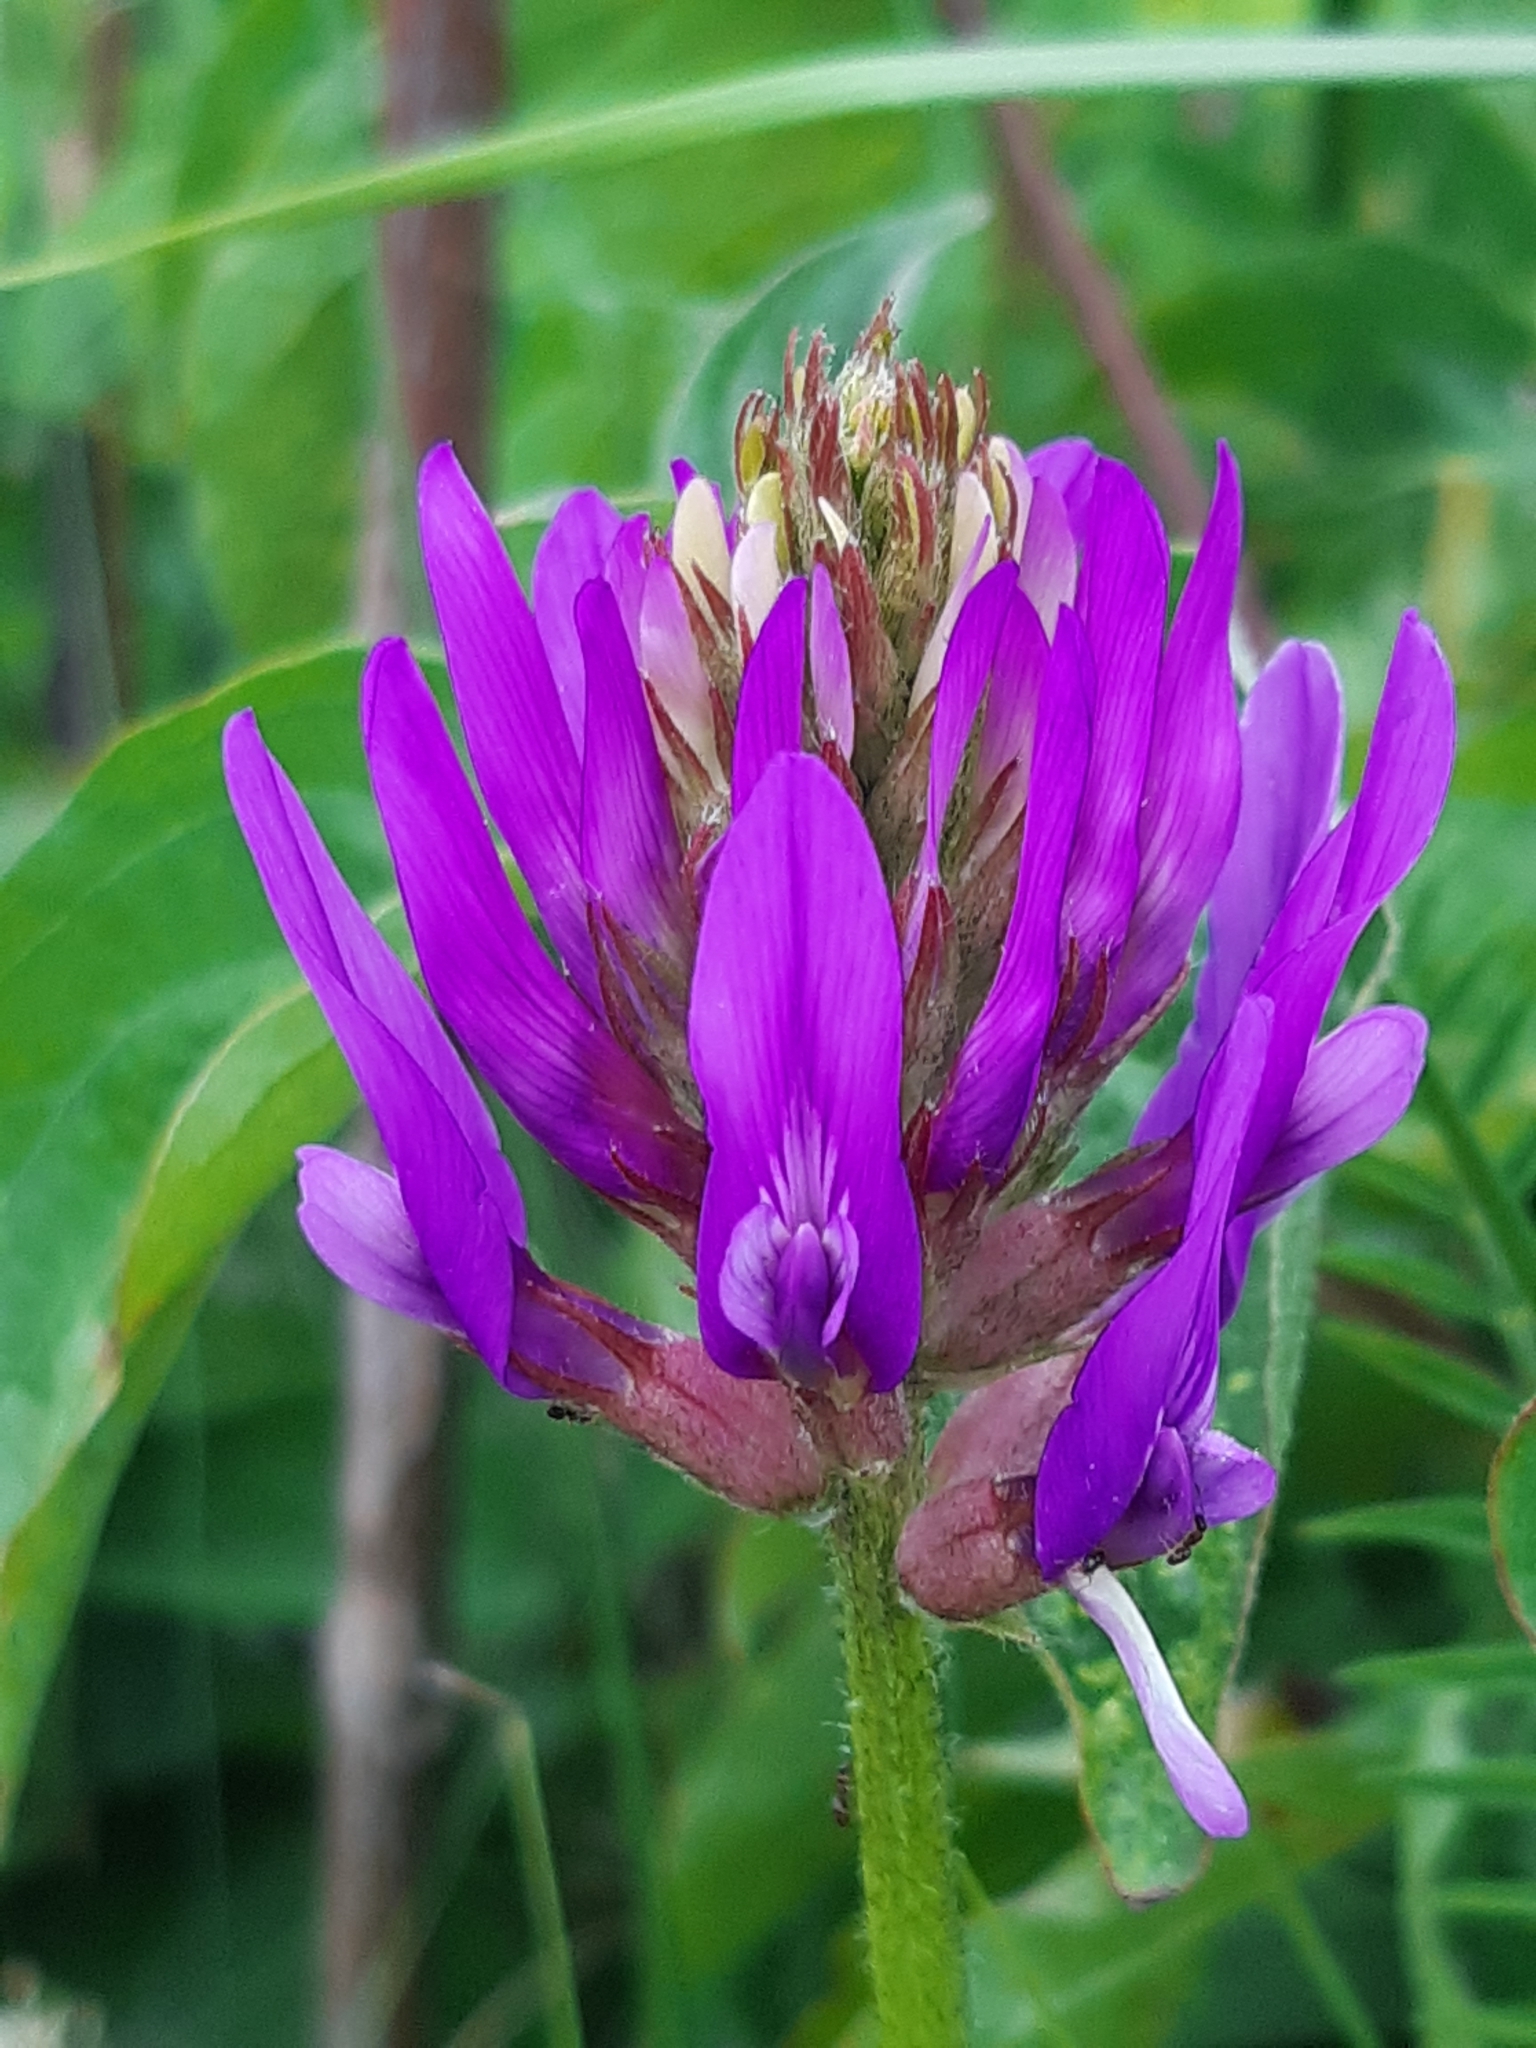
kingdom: Plantae
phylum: Tracheophyta
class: Magnoliopsida
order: Fabales
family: Fabaceae
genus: Astragalus
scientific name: Astragalus onobrychis
